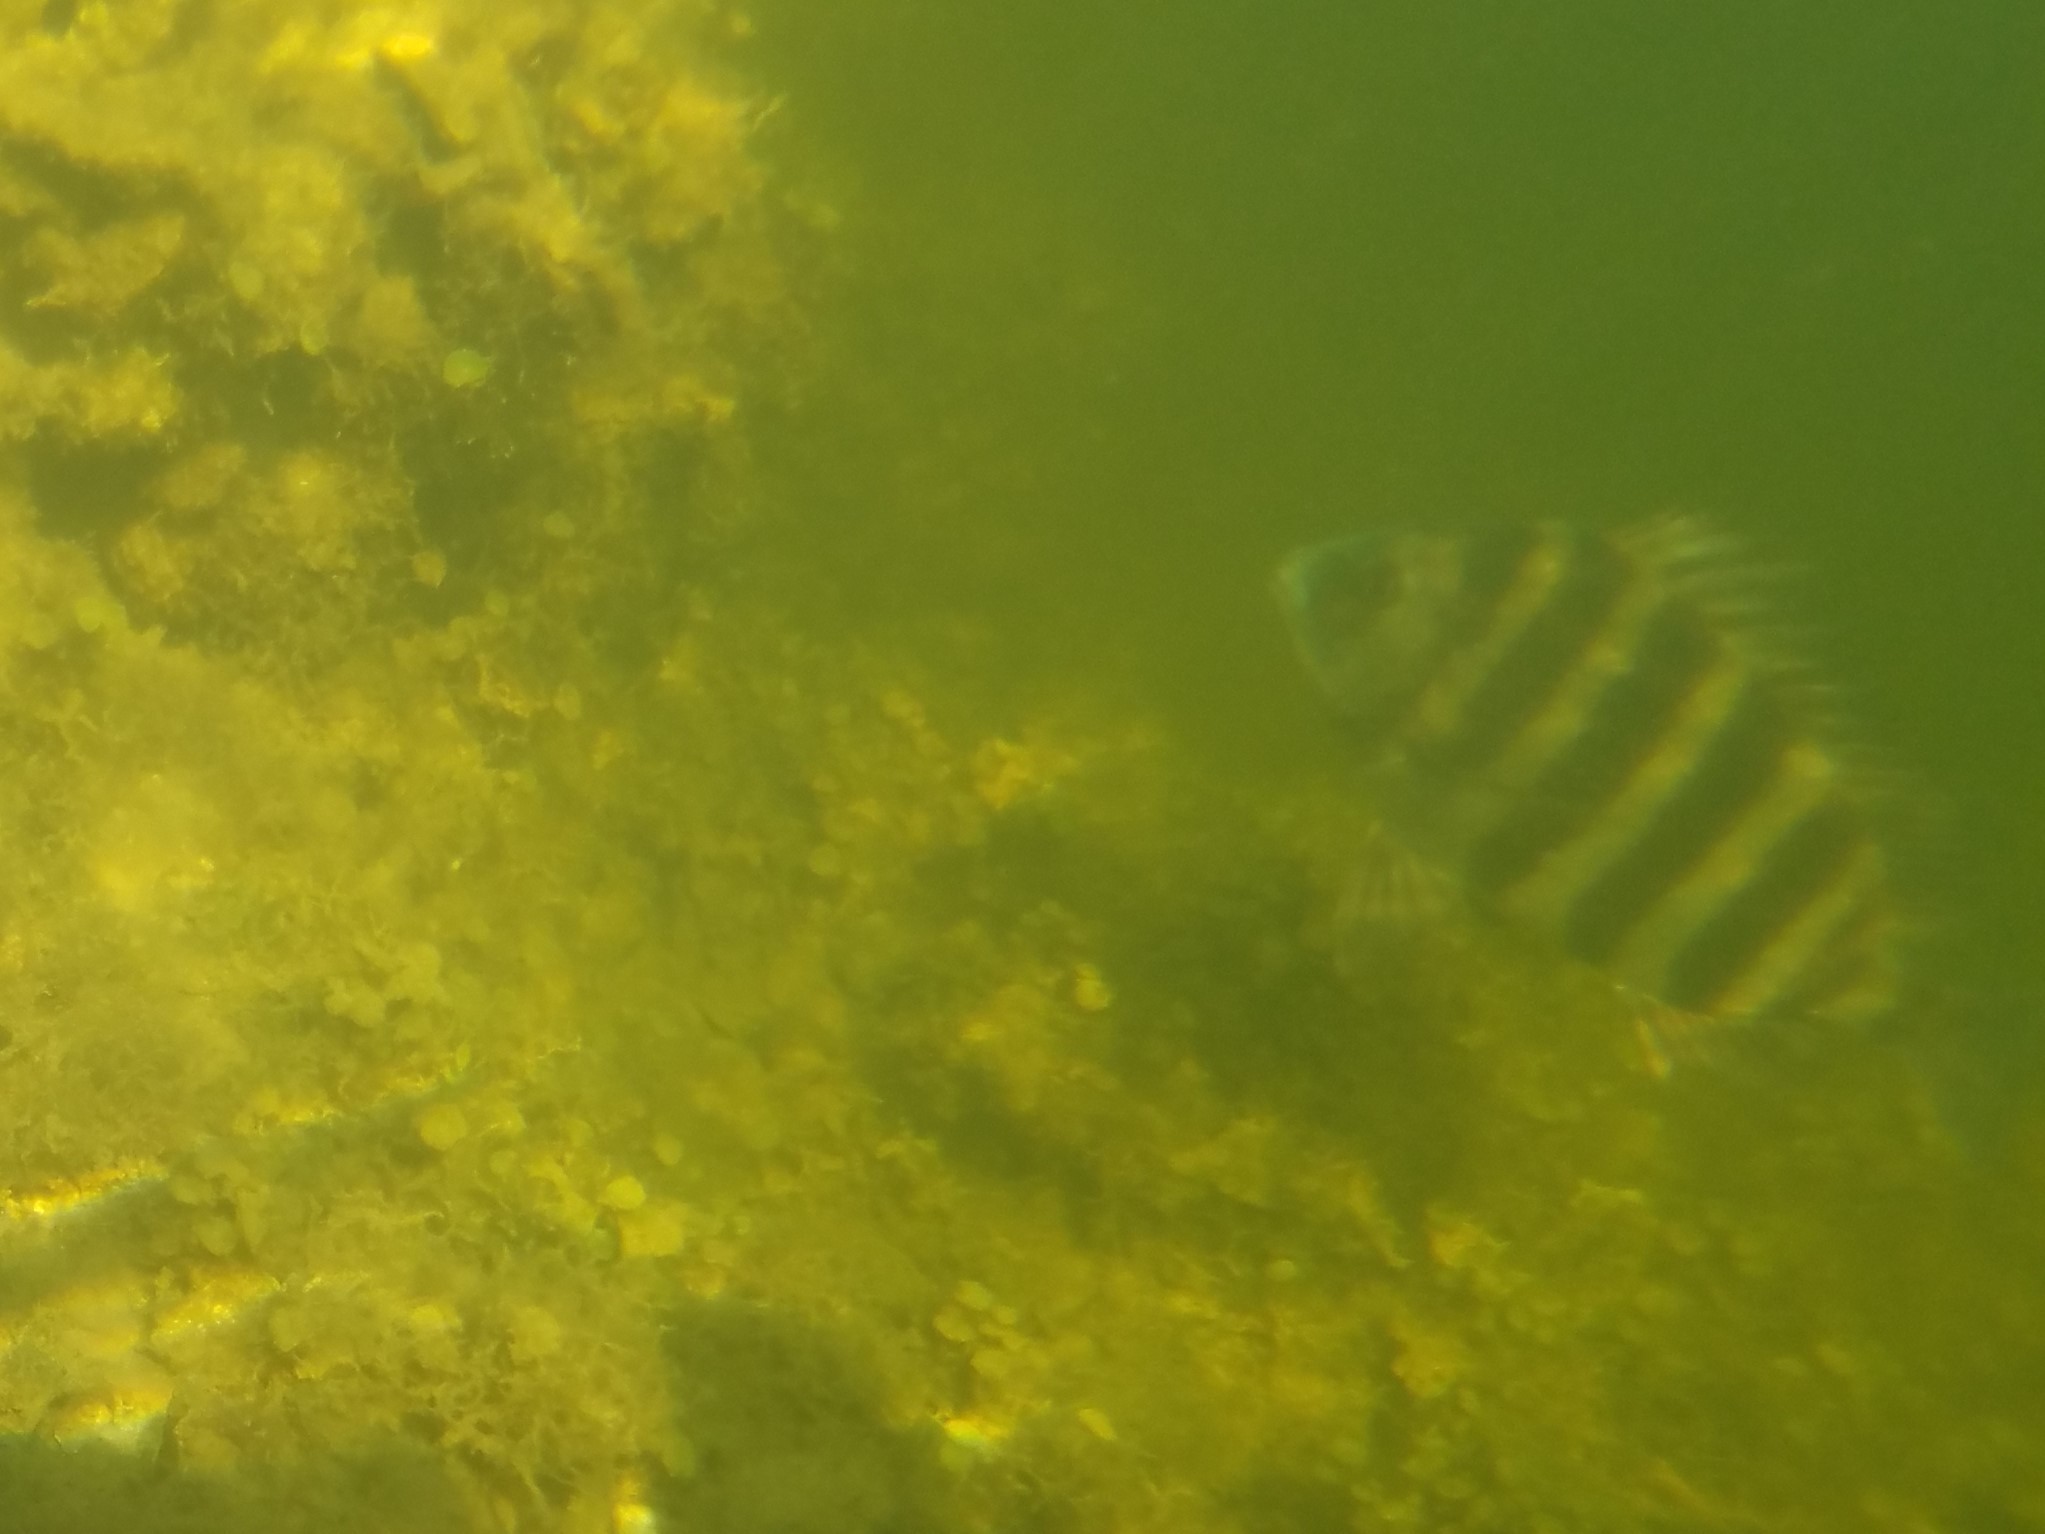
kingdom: Animalia
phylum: Chordata
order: Perciformes
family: Sparidae
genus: Archosargus
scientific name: Archosargus probatocephalus
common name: Sheepshead
